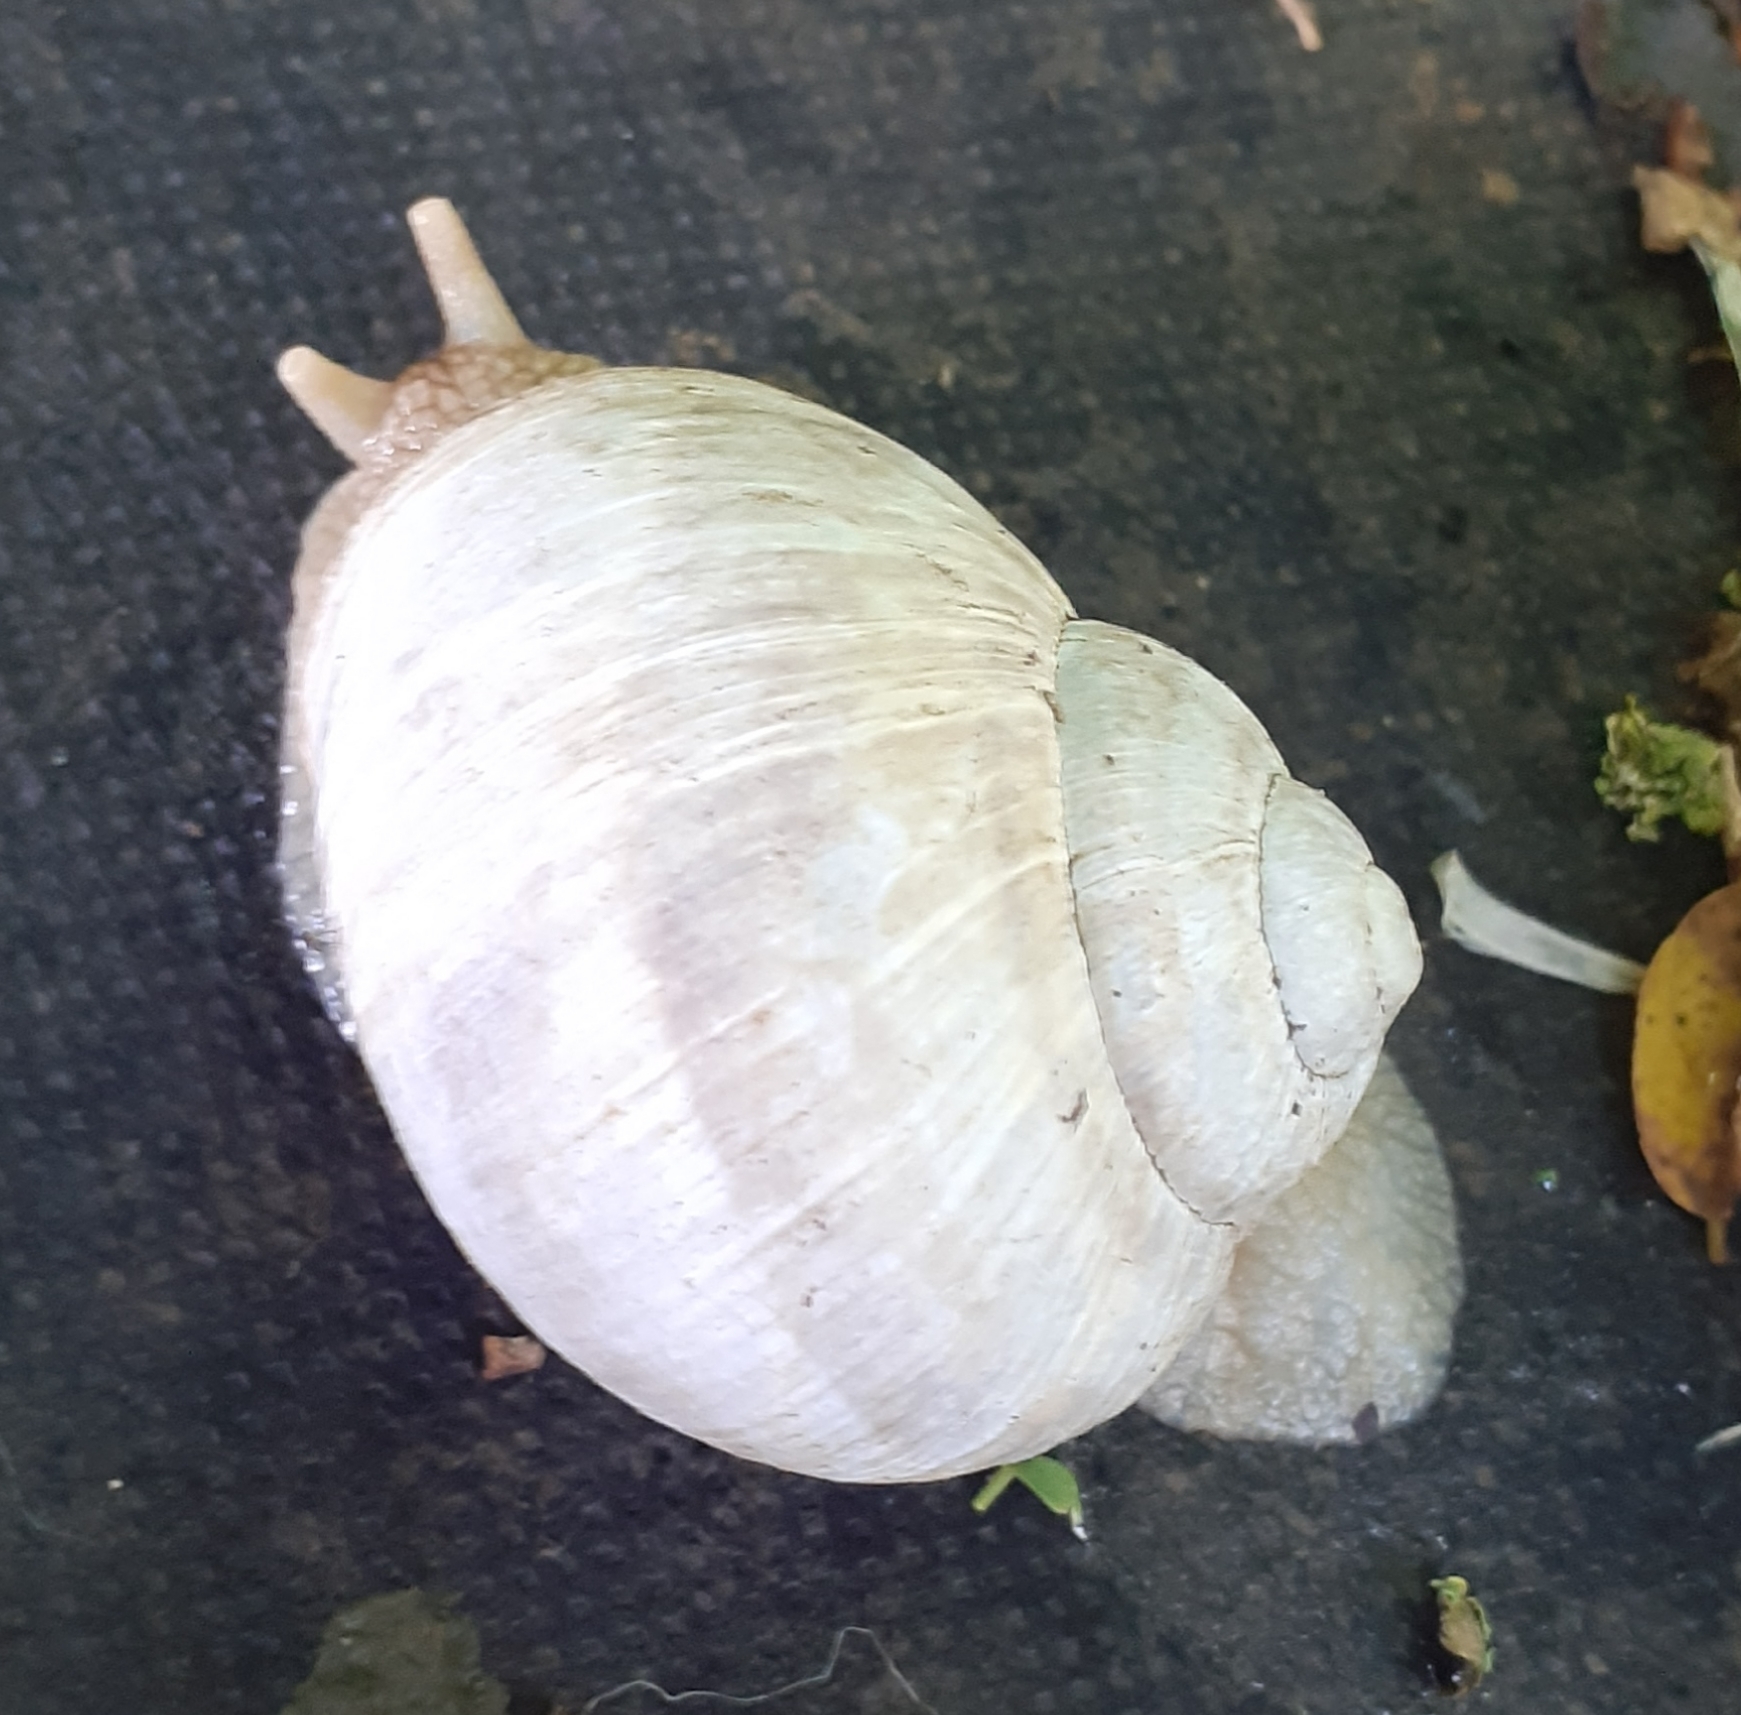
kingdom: Animalia
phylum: Mollusca
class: Gastropoda
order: Stylommatophora
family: Helicidae
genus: Helix
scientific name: Helix pomatia
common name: Roman snail
